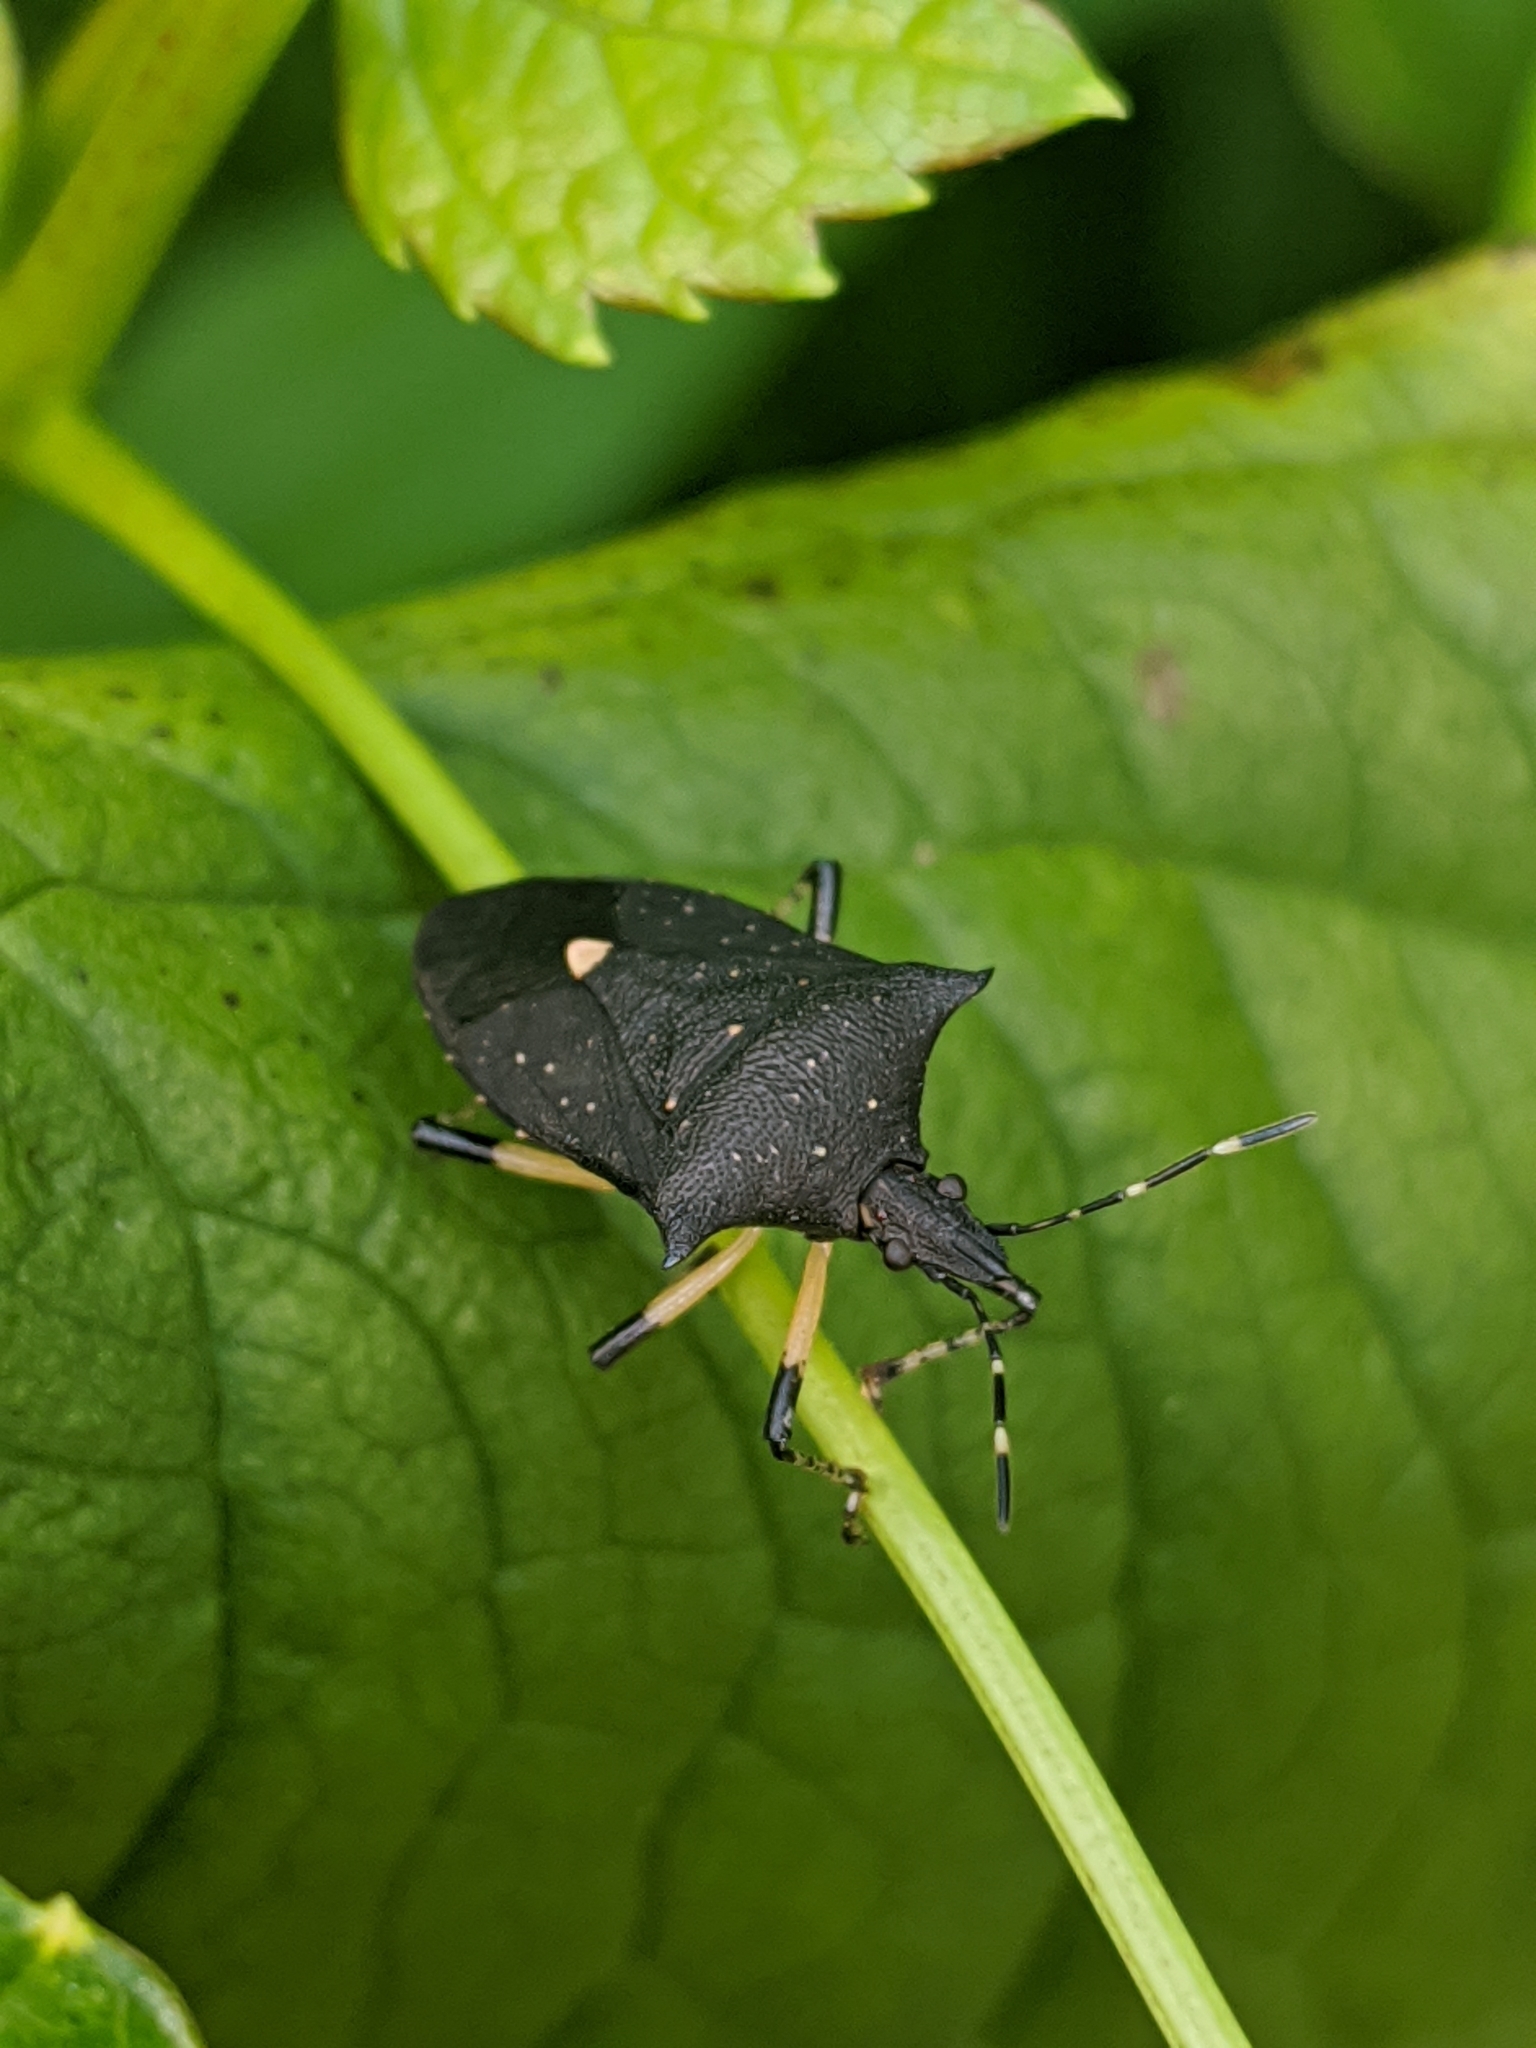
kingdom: Animalia
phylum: Arthropoda
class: Insecta
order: Hemiptera
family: Pentatomidae
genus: Proxys
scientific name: Proxys punctulatus
